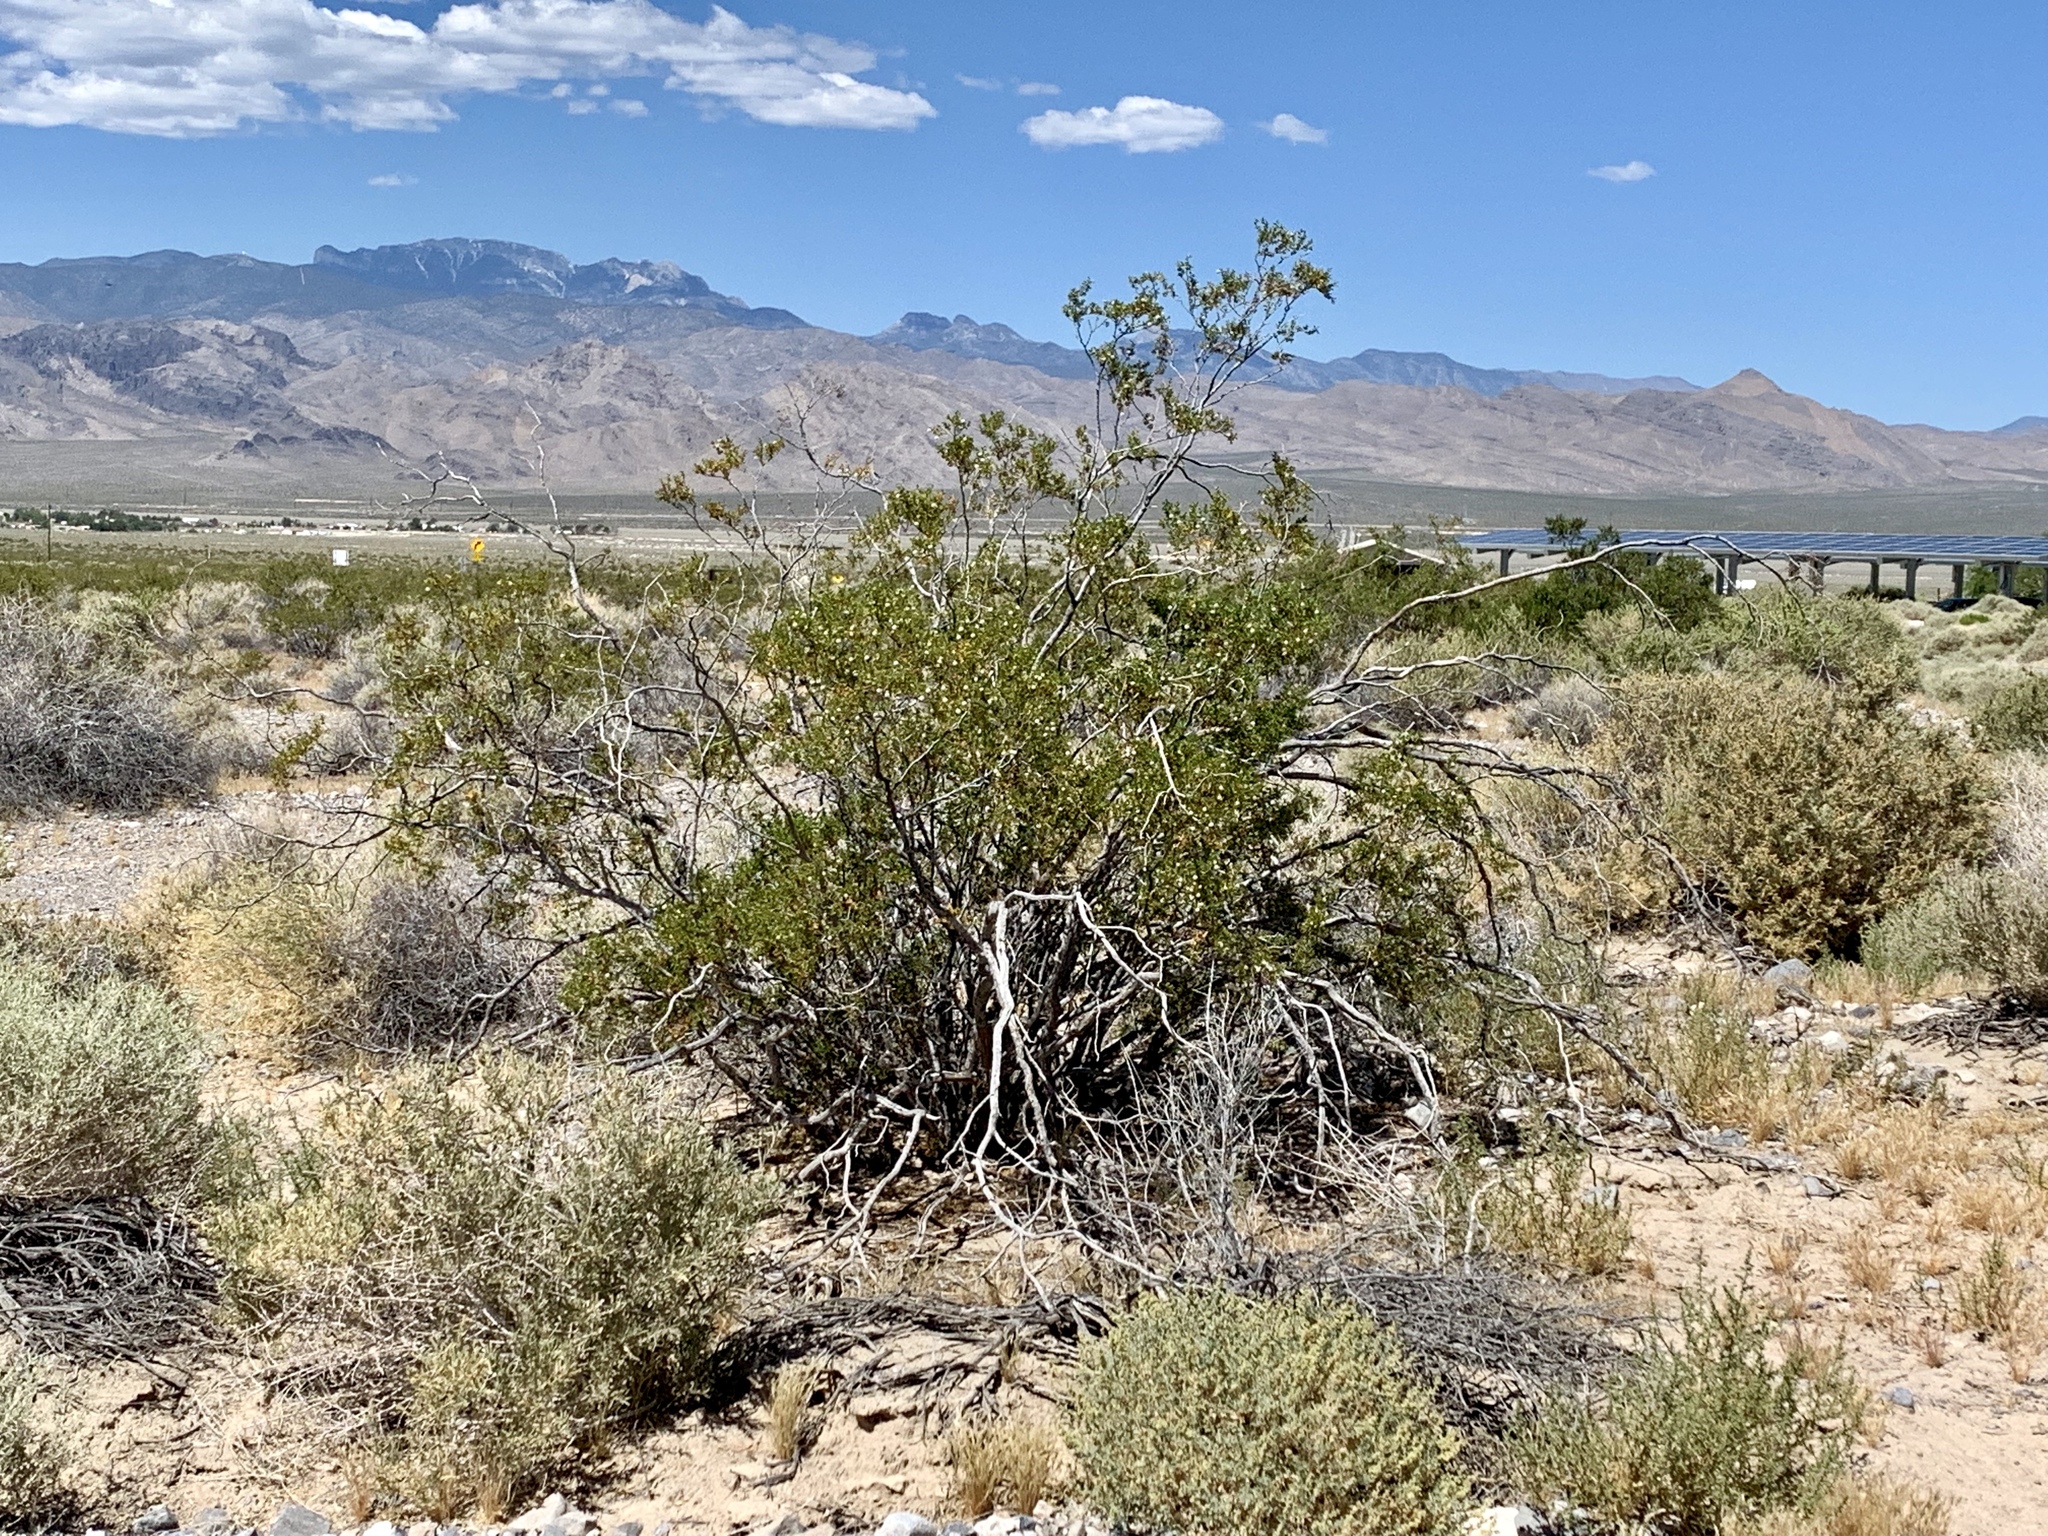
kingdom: Plantae
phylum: Tracheophyta
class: Magnoliopsida
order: Zygophyllales
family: Zygophyllaceae
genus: Larrea
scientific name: Larrea tridentata
